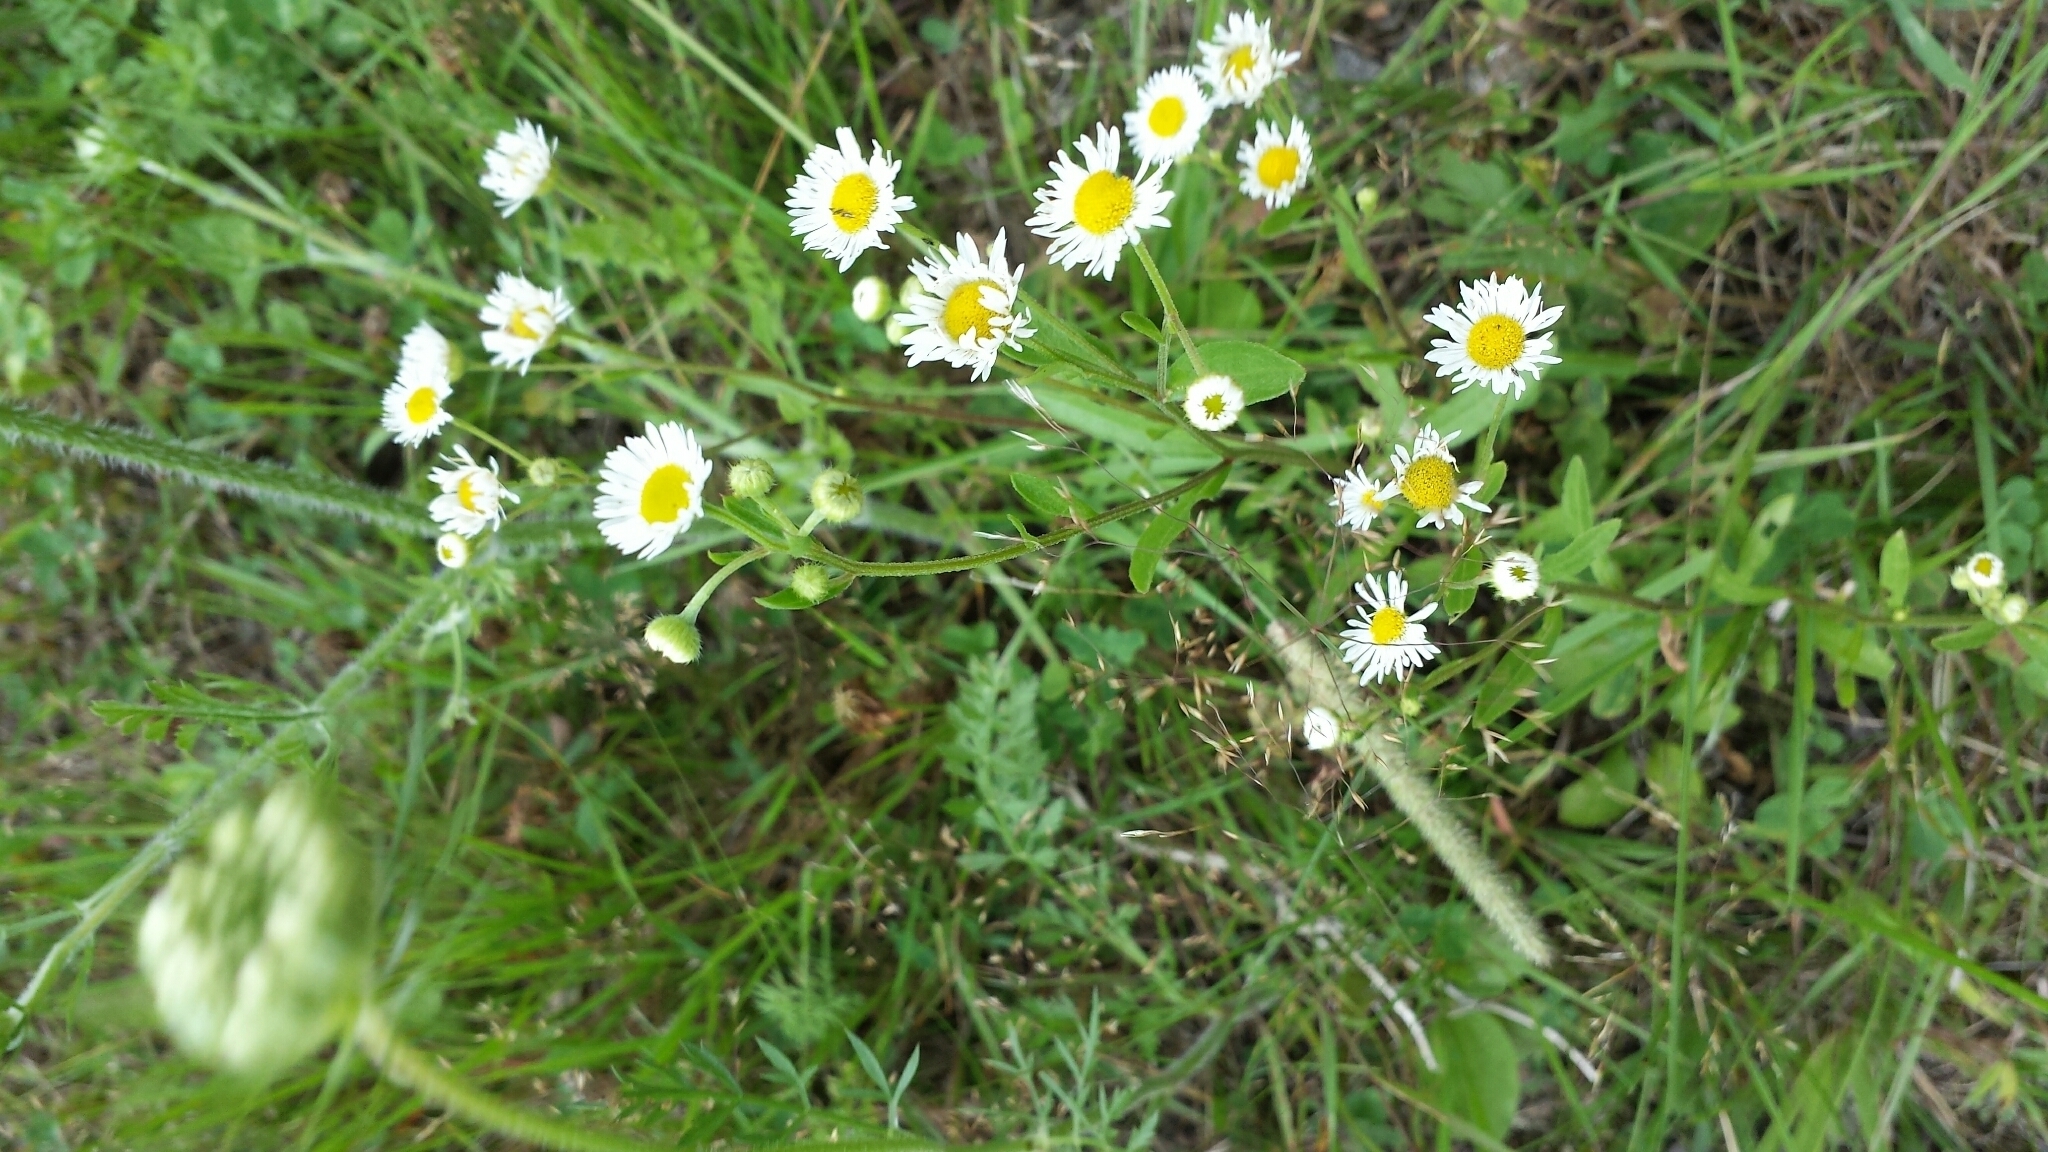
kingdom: Plantae
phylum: Tracheophyta
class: Magnoliopsida
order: Asterales
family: Asteraceae
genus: Erigeron
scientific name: Erigeron strigosus
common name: Common eastern fleabane
